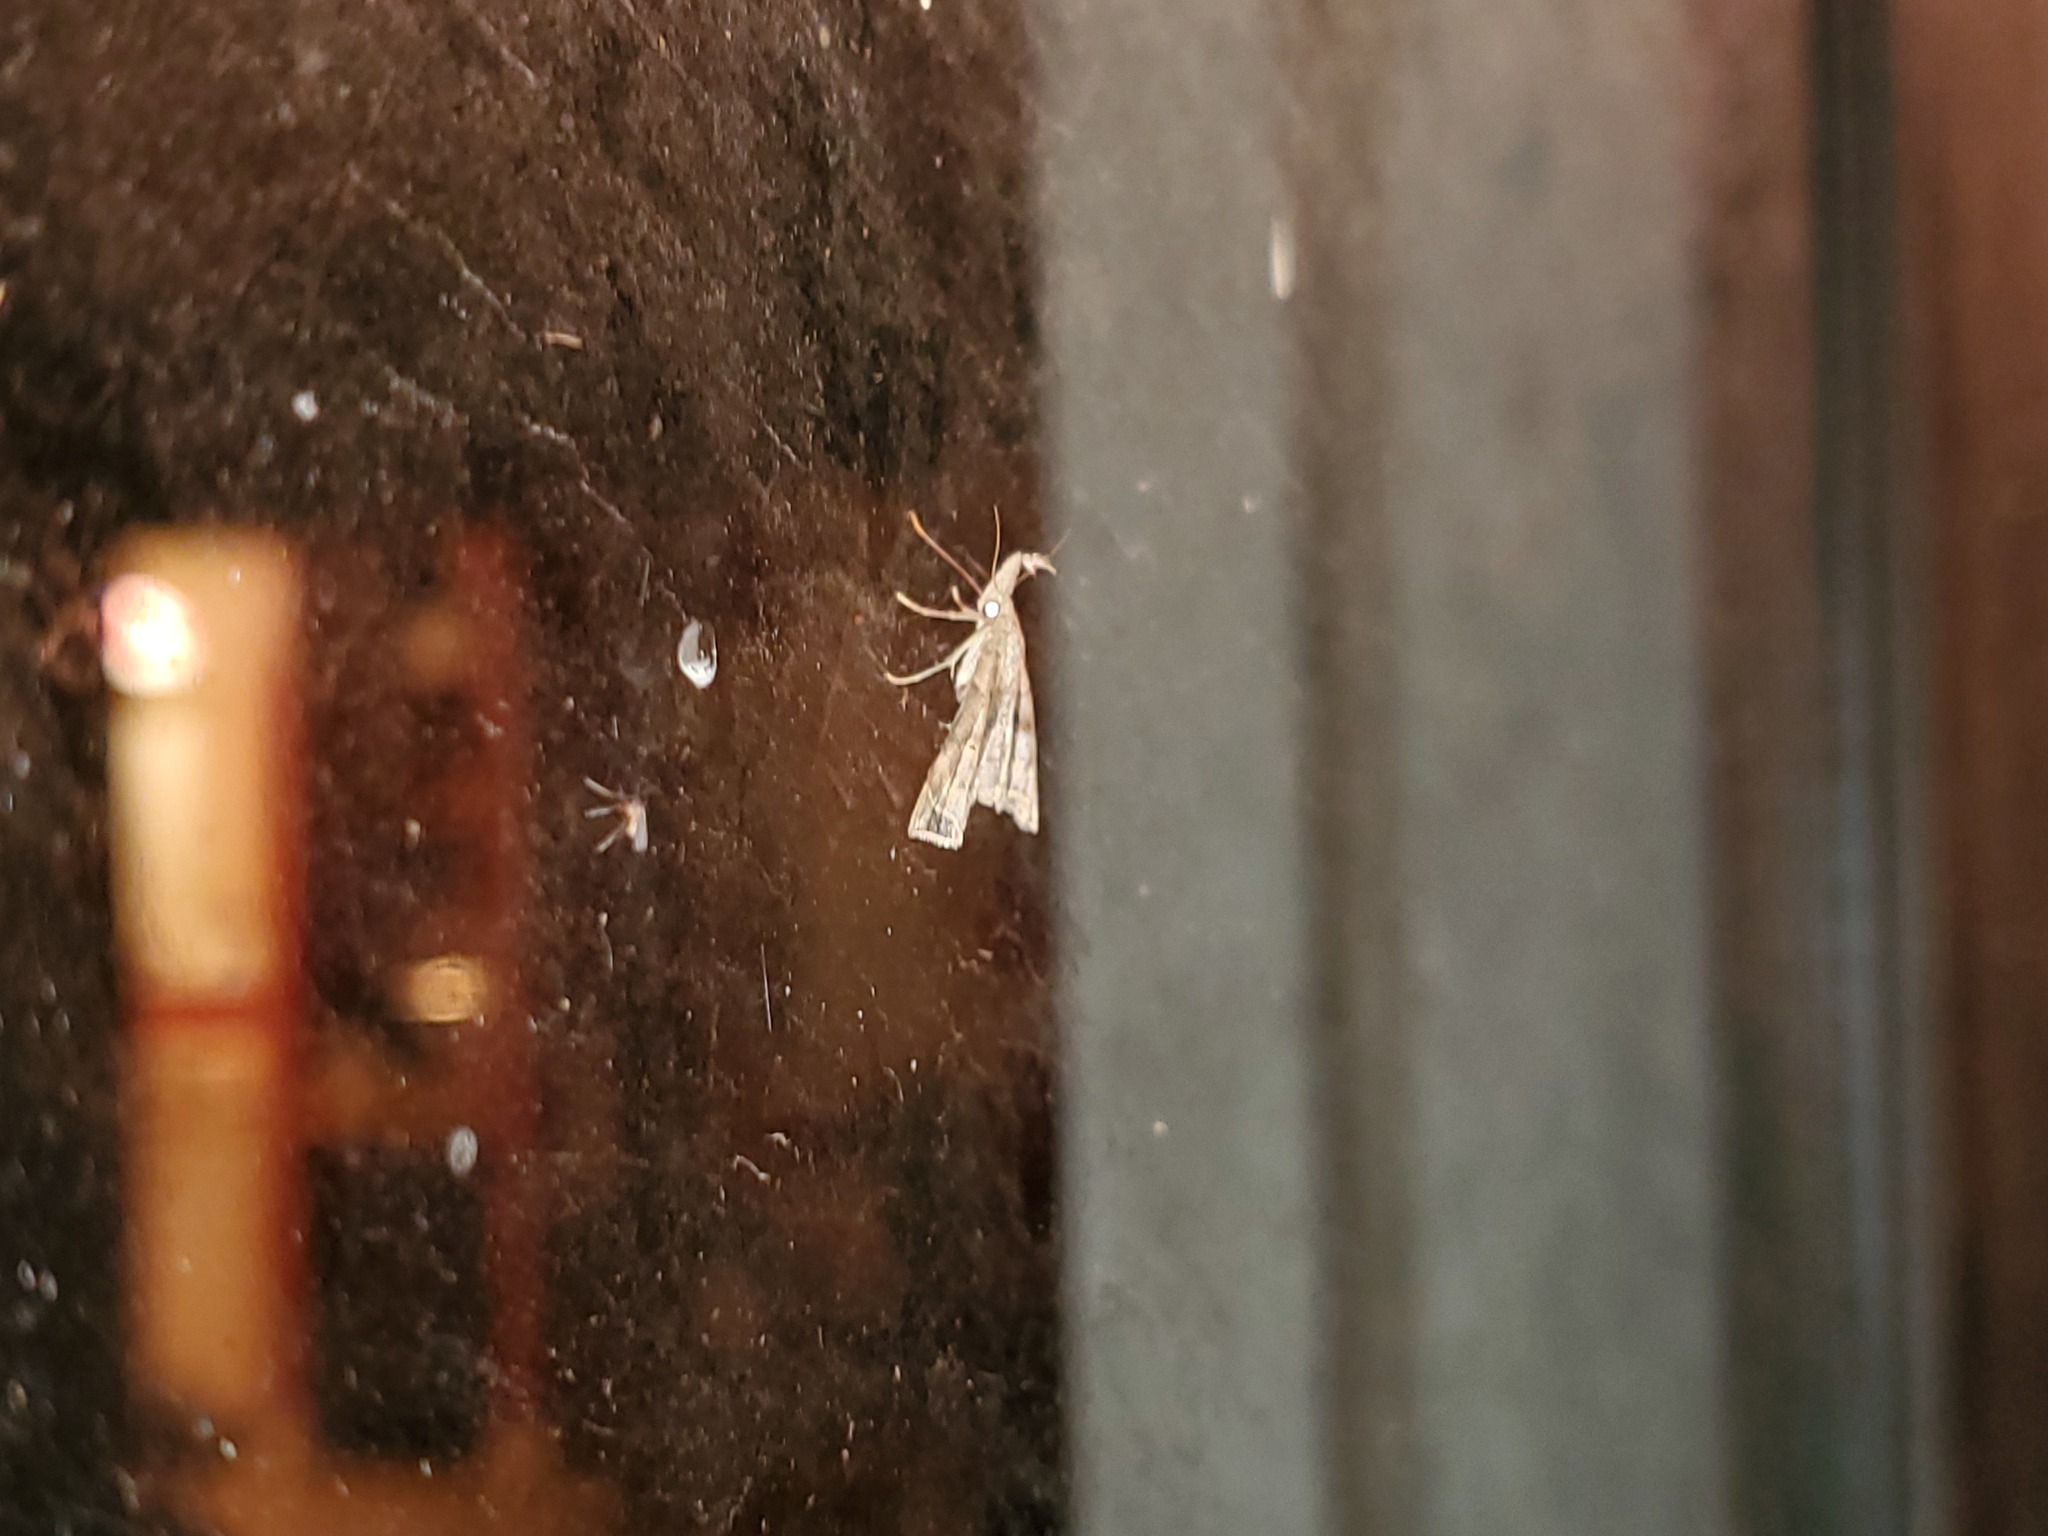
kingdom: Animalia
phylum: Arthropoda
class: Insecta
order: Lepidoptera
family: Erebidae
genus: Palthis
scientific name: Palthis asopialis
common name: Faint-spotted palthis moth
